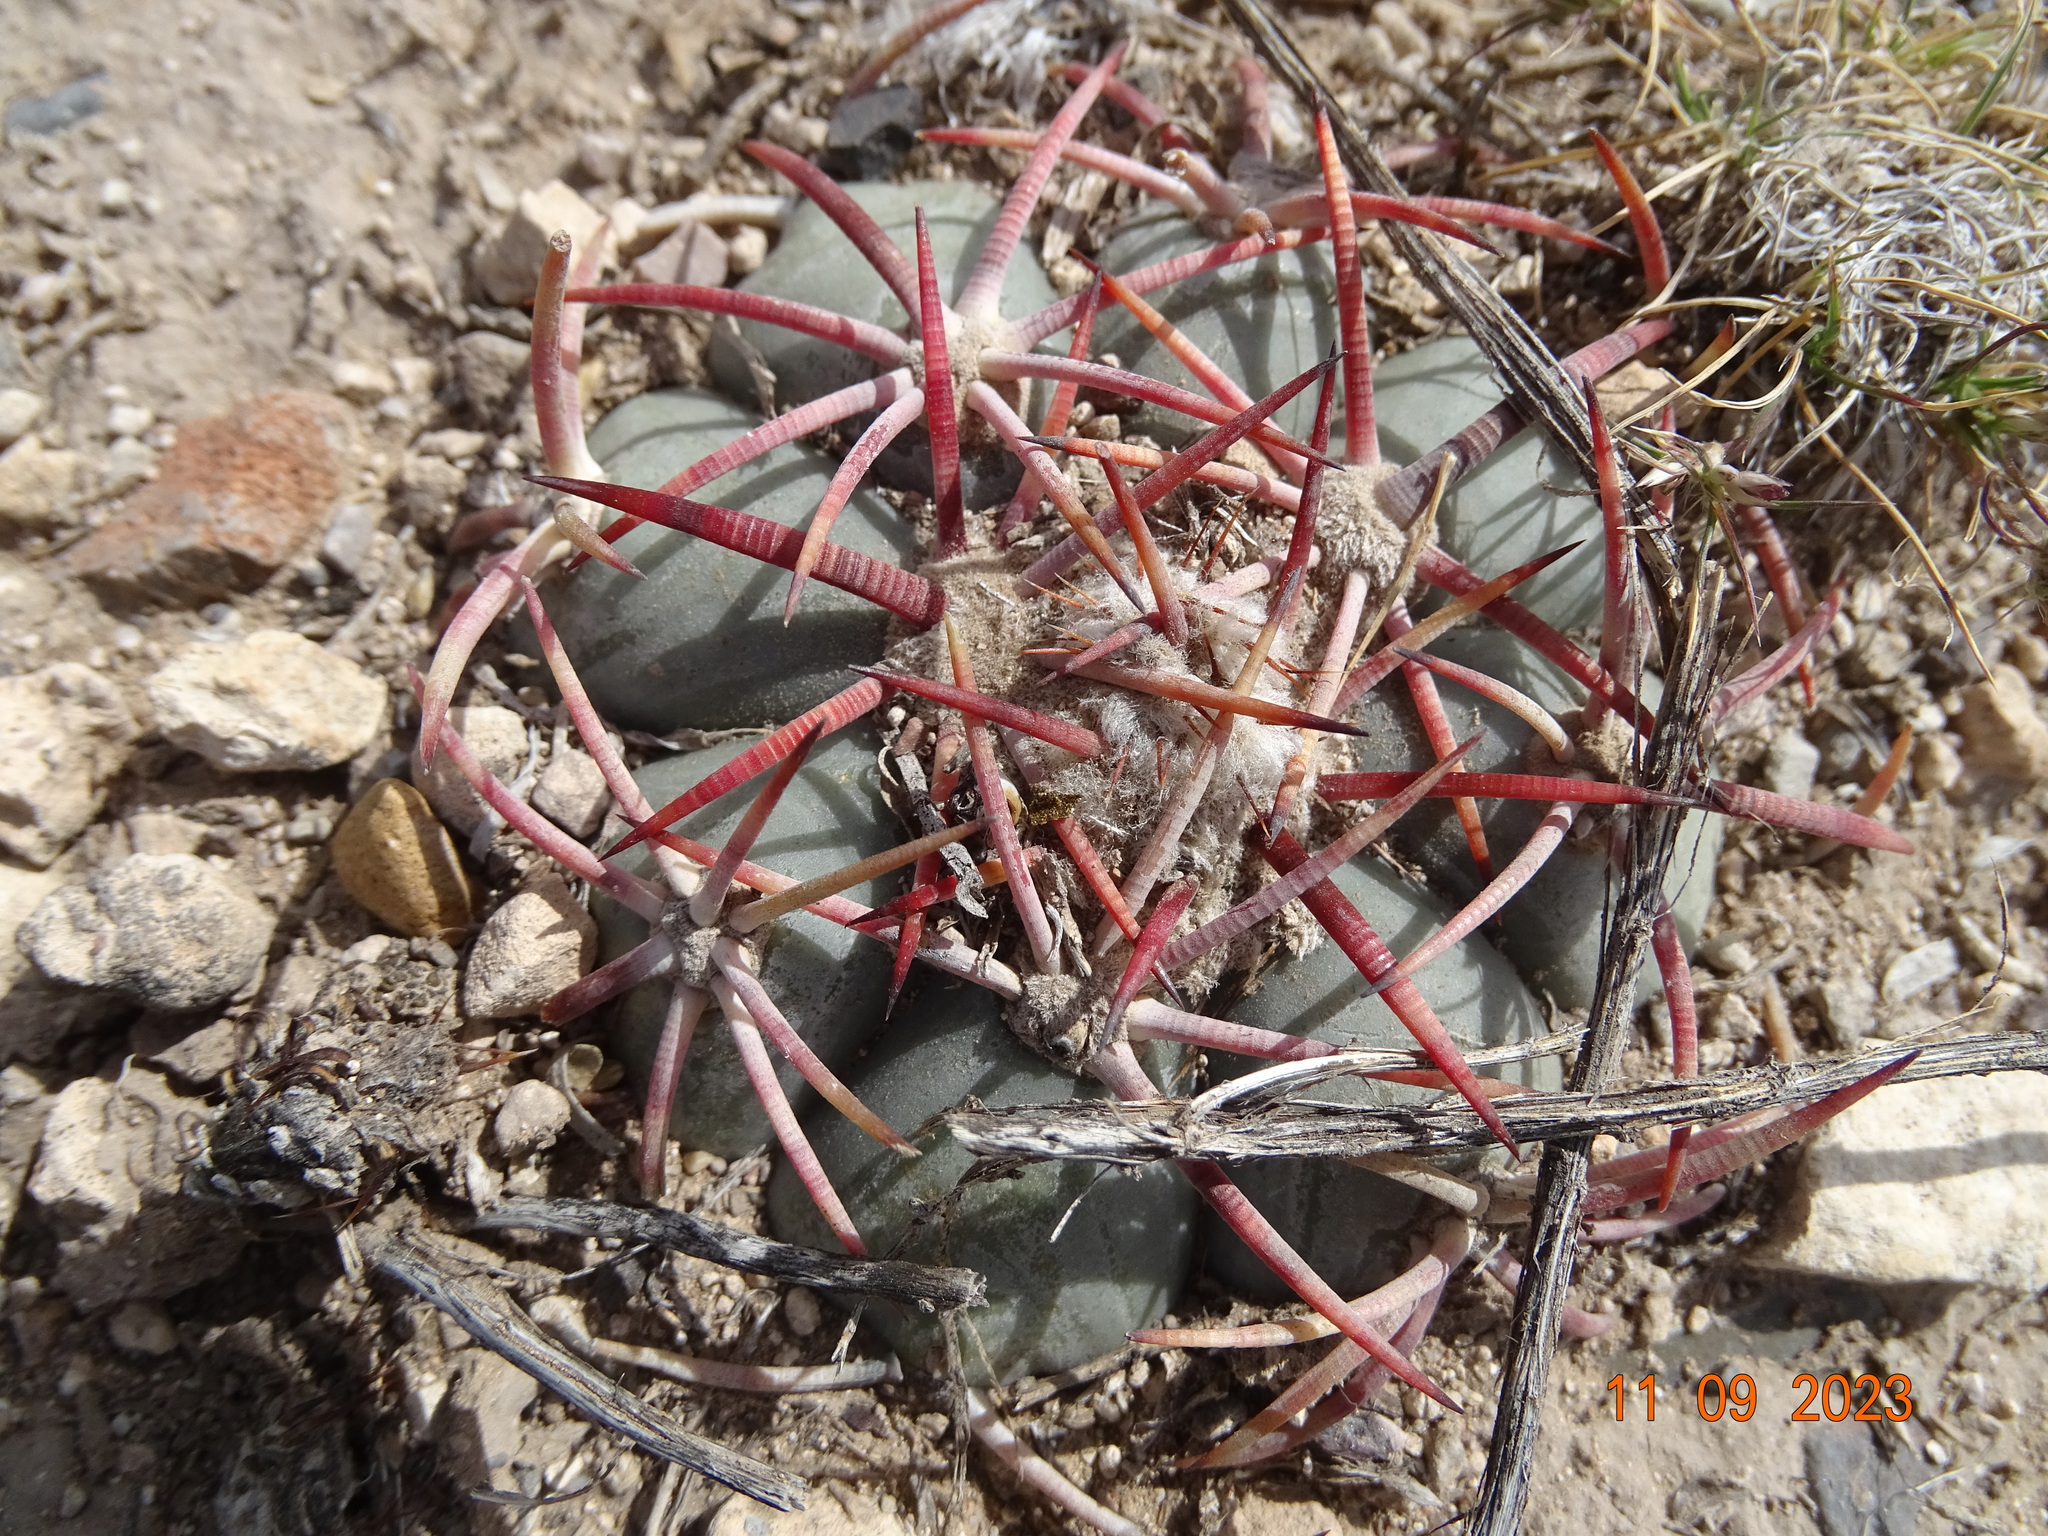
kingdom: Plantae
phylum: Tracheophyta
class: Magnoliopsida
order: Caryophyllales
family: Cactaceae
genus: Echinocactus
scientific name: Echinocactus horizonthalonius
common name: Devilshead
